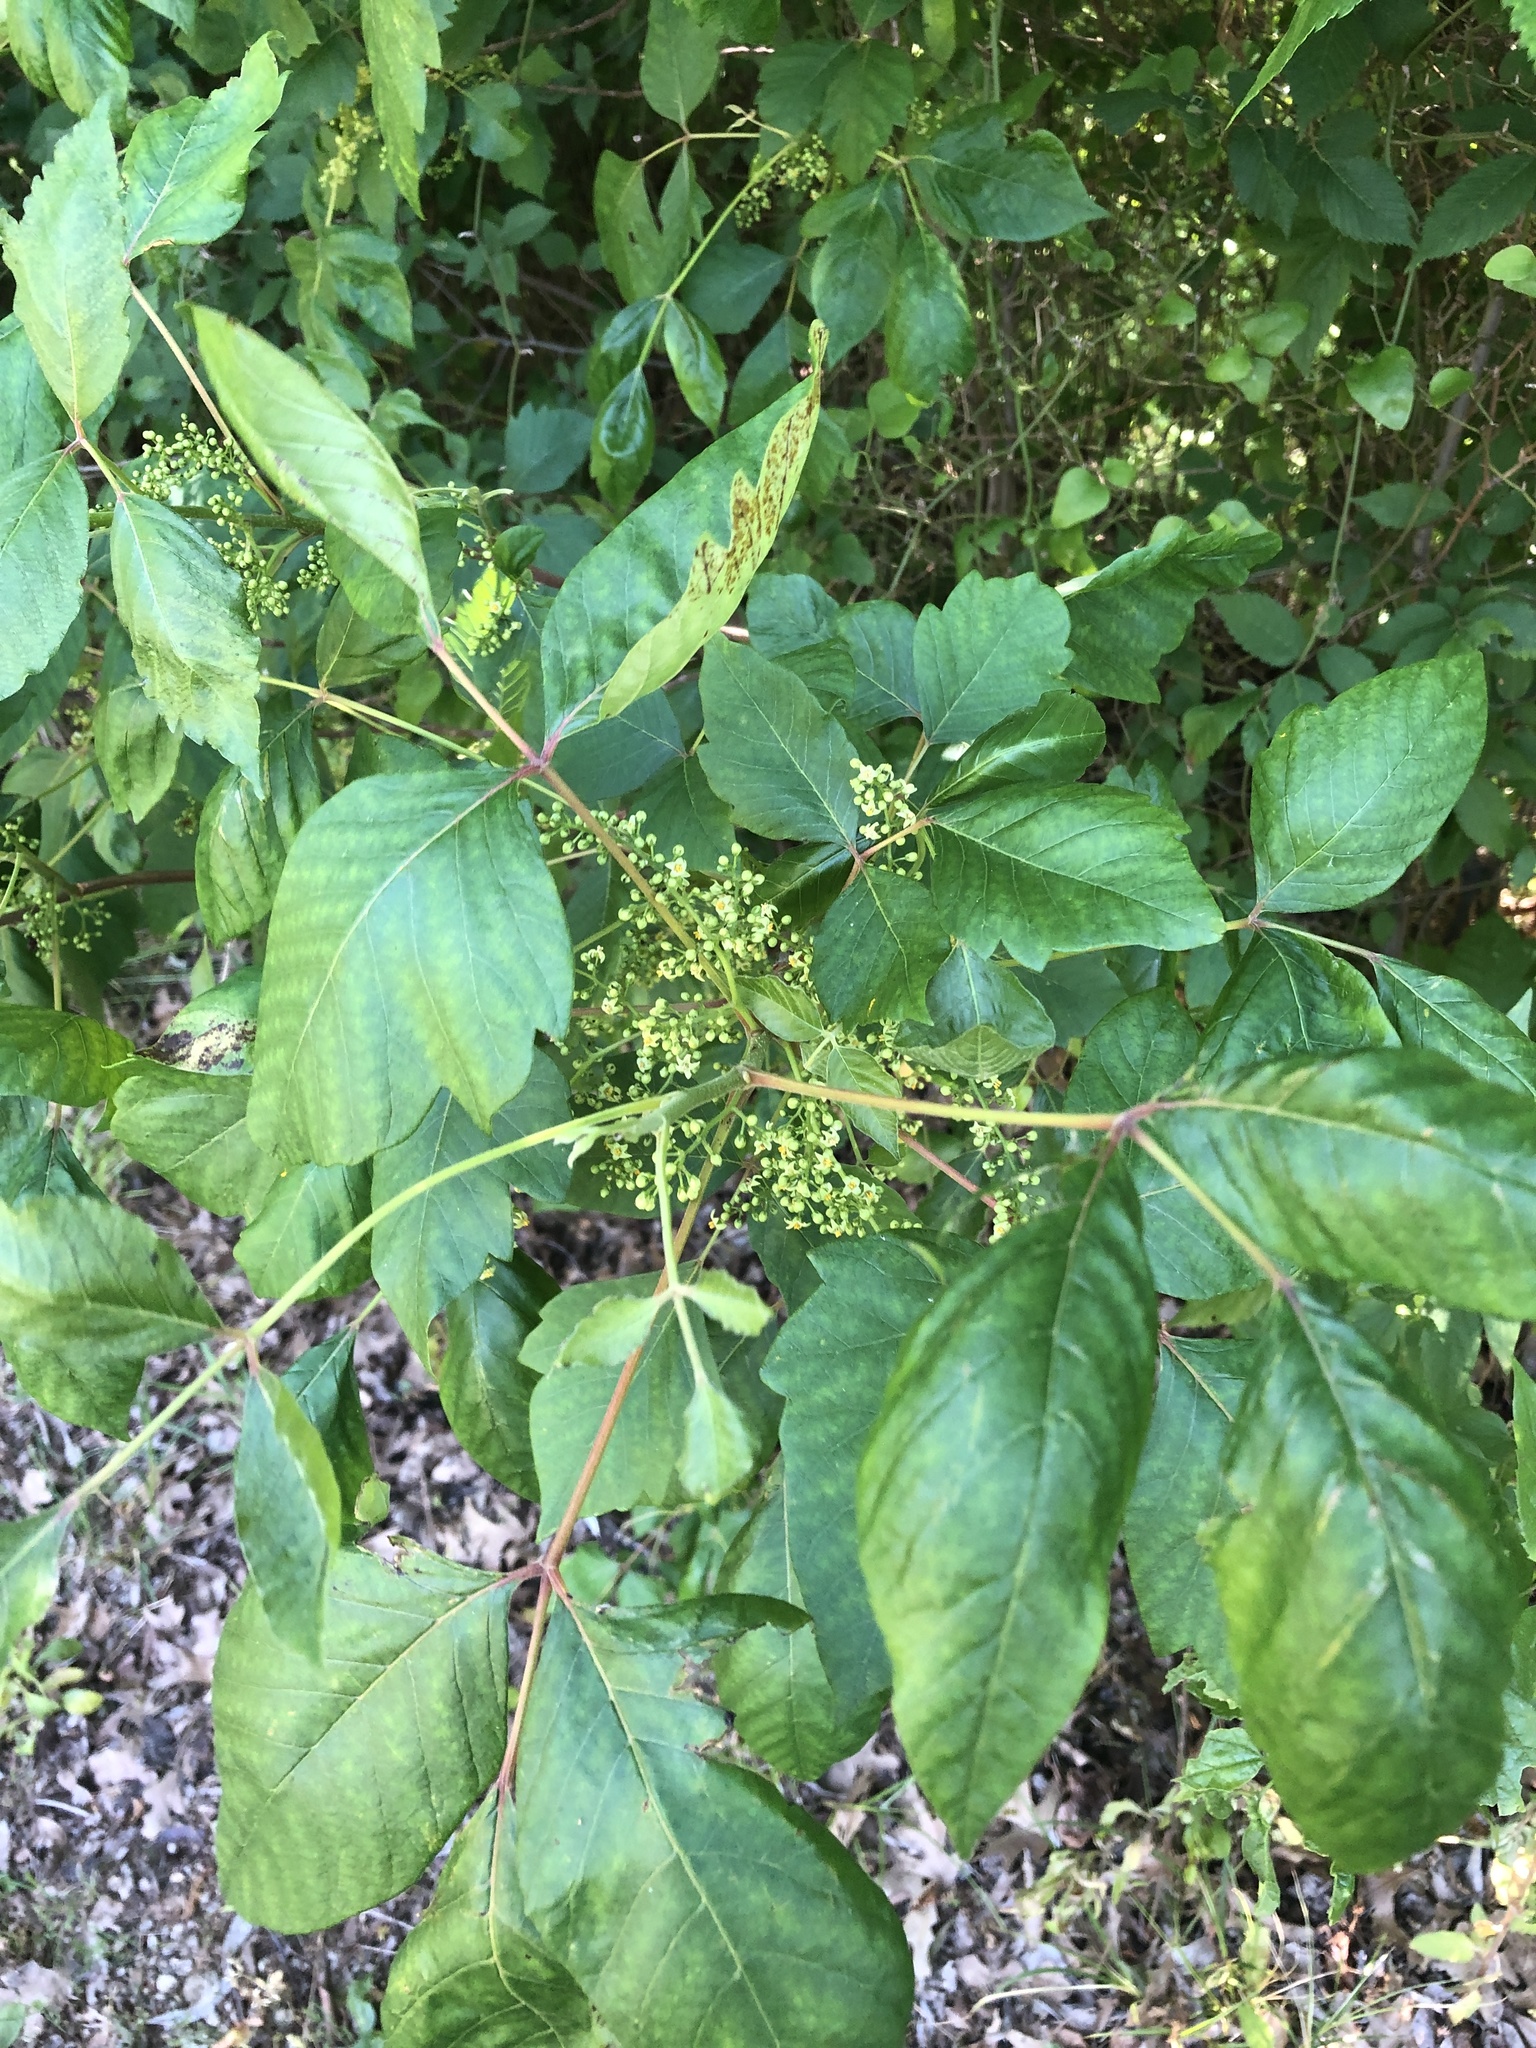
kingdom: Plantae
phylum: Tracheophyta
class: Magnoliopsida
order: Sapindales
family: Anacardiaceae
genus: Toxicodendron
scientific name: Toxicodendron radicans
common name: Poison ivy
